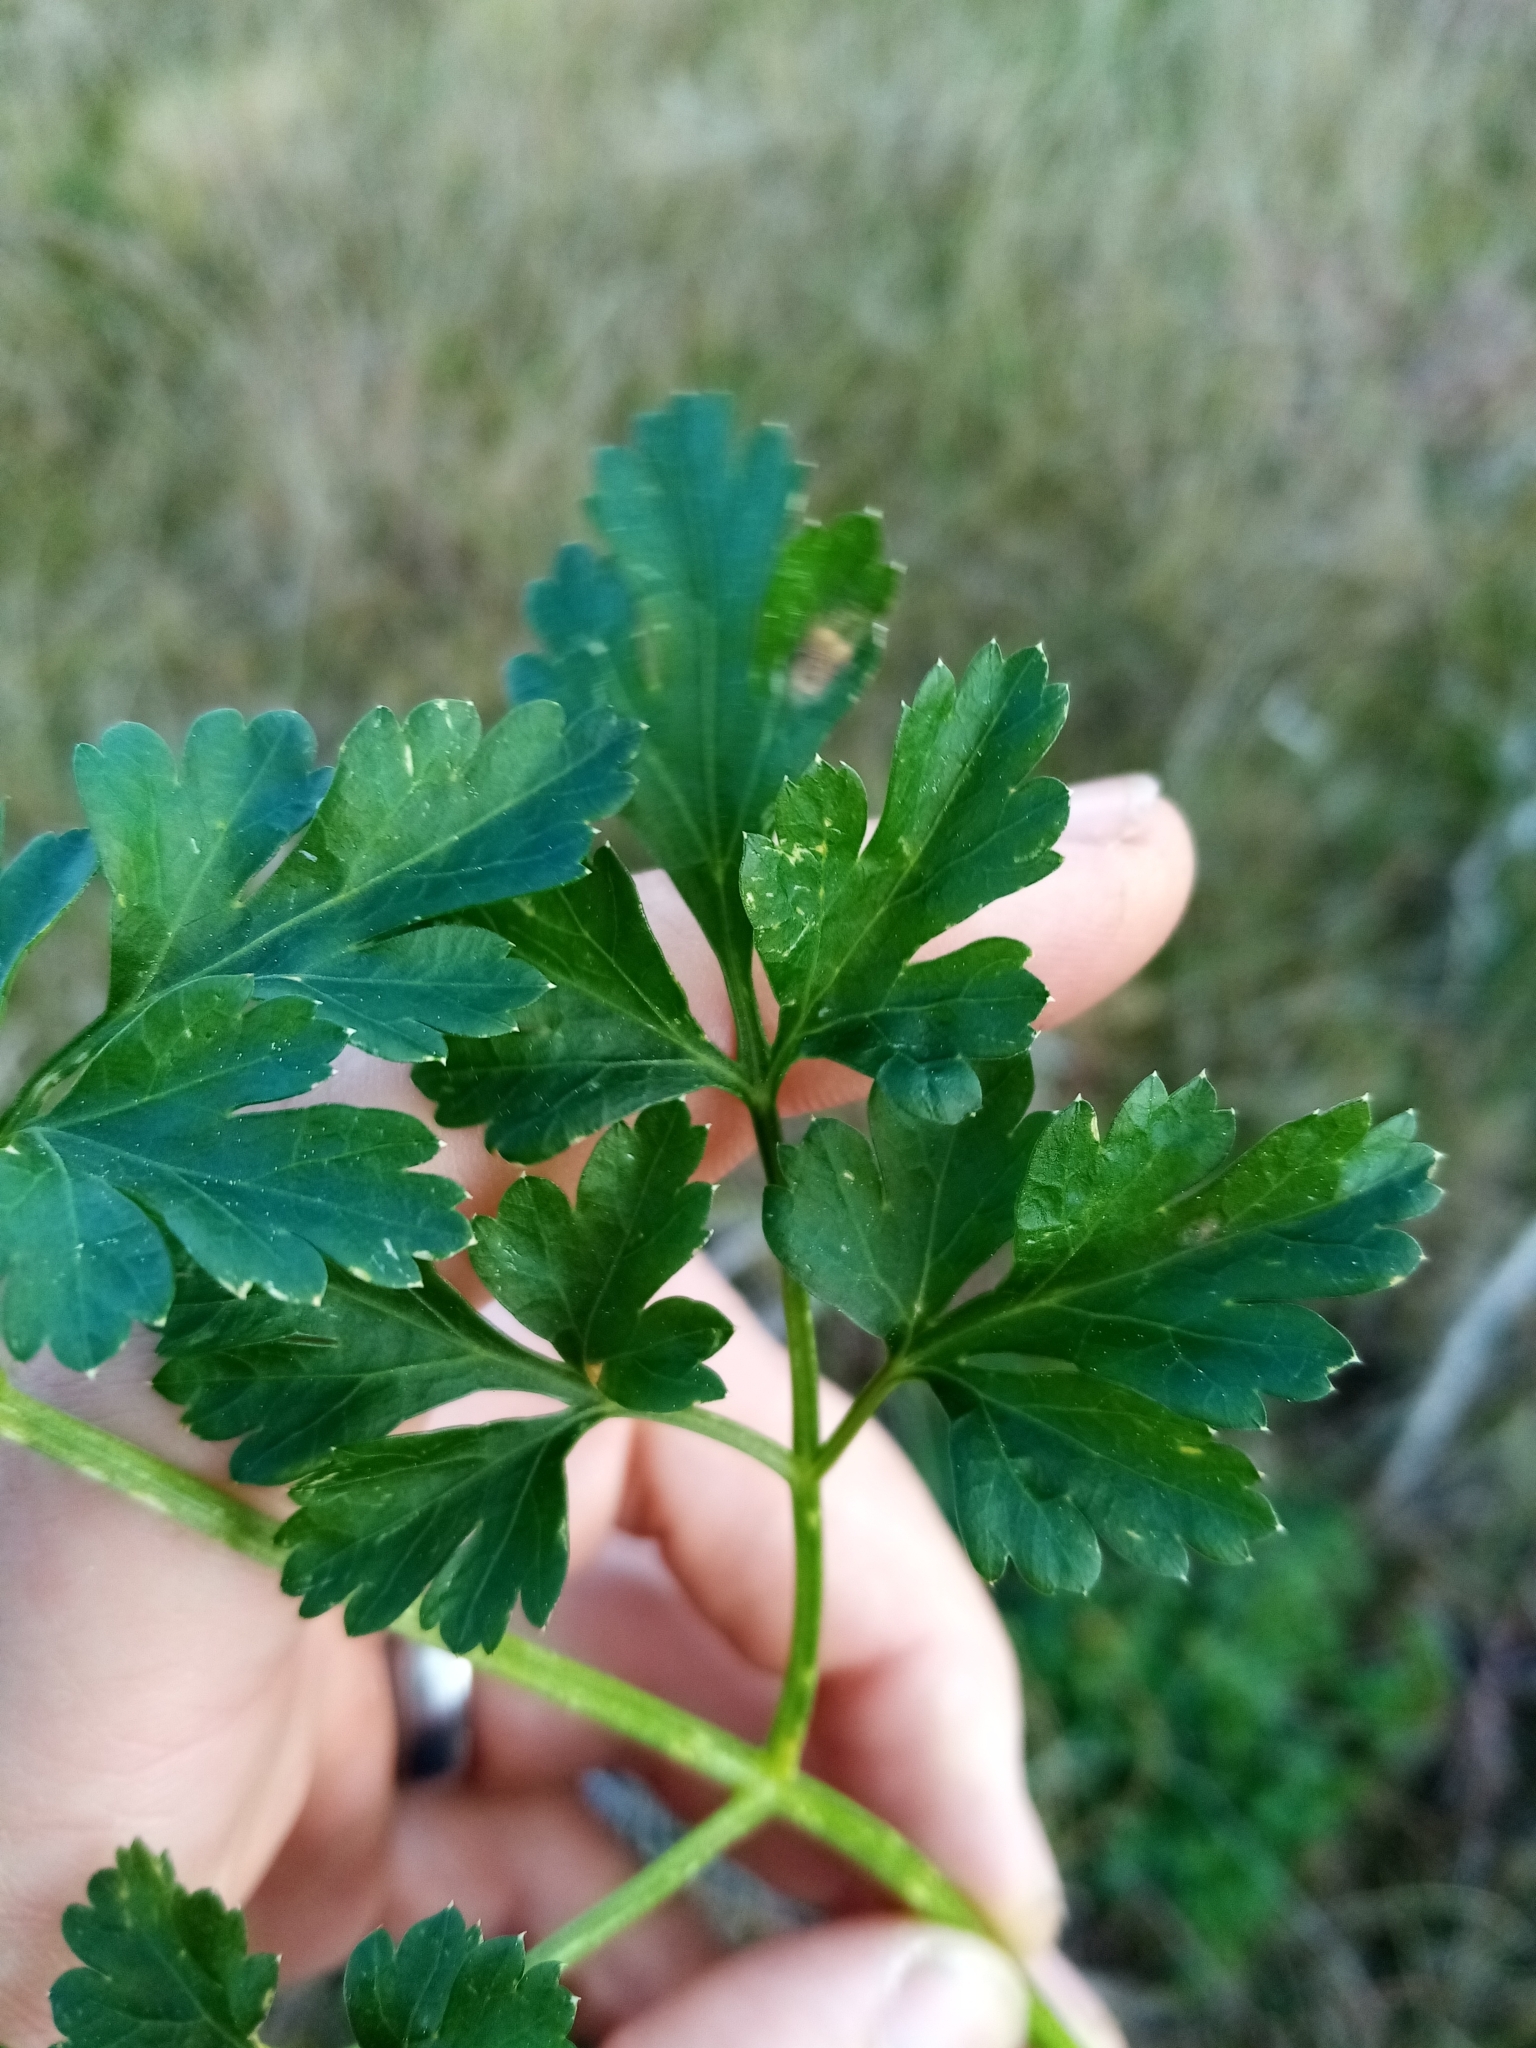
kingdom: Plantae
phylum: Tracheophyta
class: Magnoliopsida
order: Apiales
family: Apiaceae
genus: Petroselinum
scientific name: Petroselinum crispum
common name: Parsley
